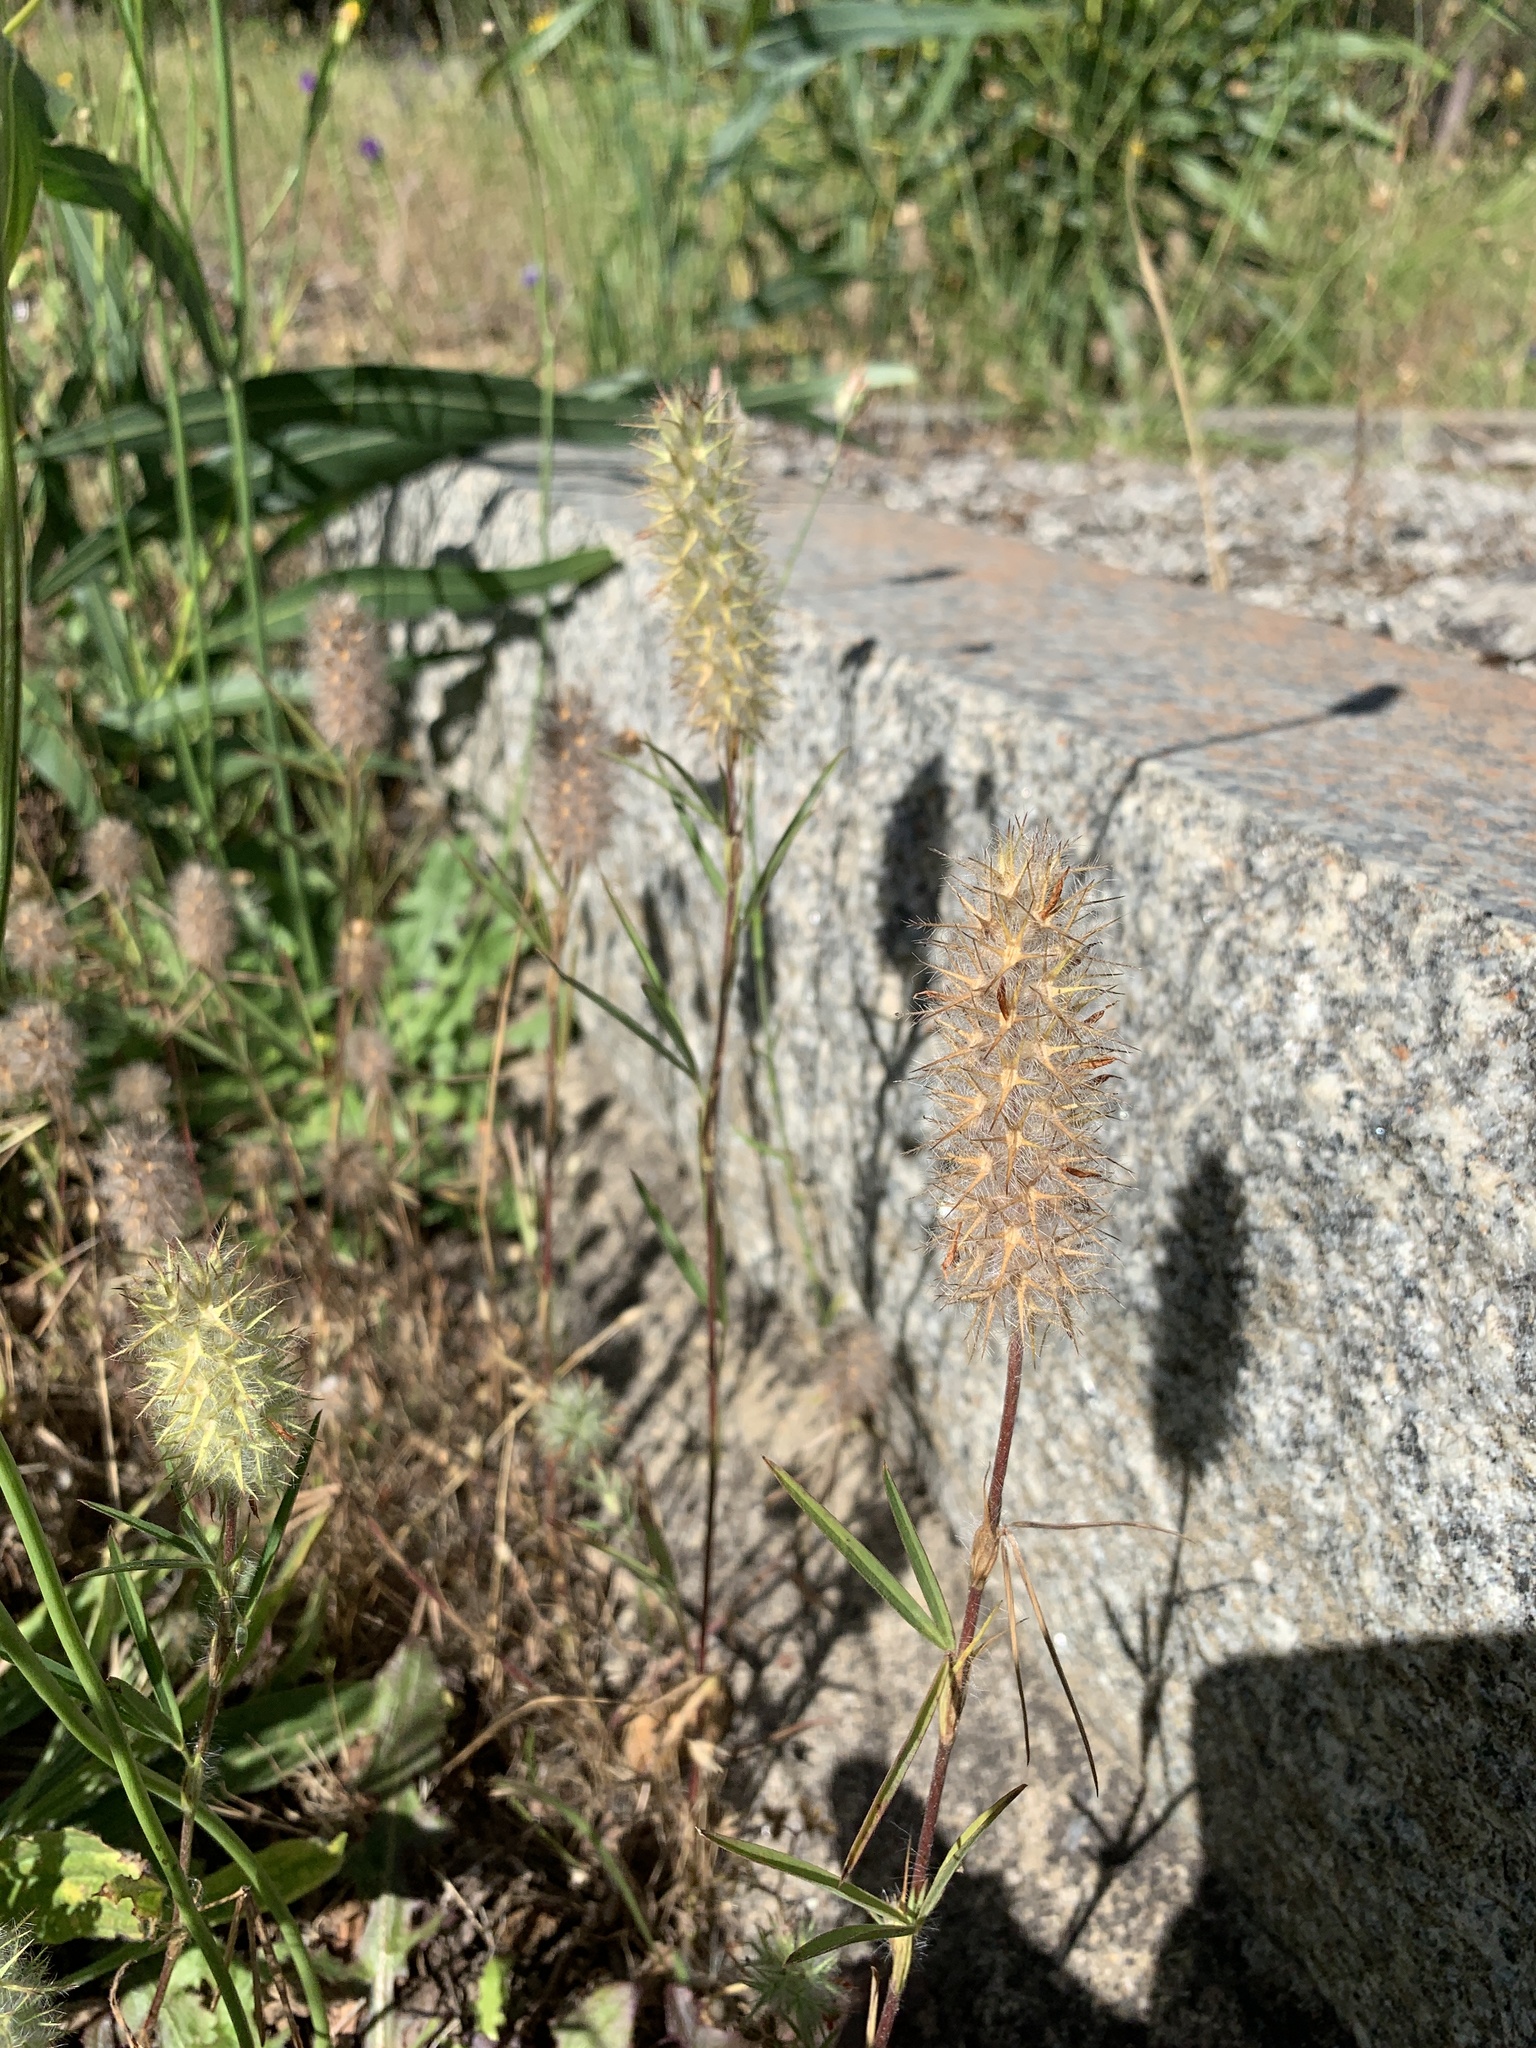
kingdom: Plantae
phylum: Tracheophyta
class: Magnoliopsida
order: Fabales
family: Fabaceae
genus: Trifolium
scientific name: Trifolium angustifolium
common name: Narrow clover
